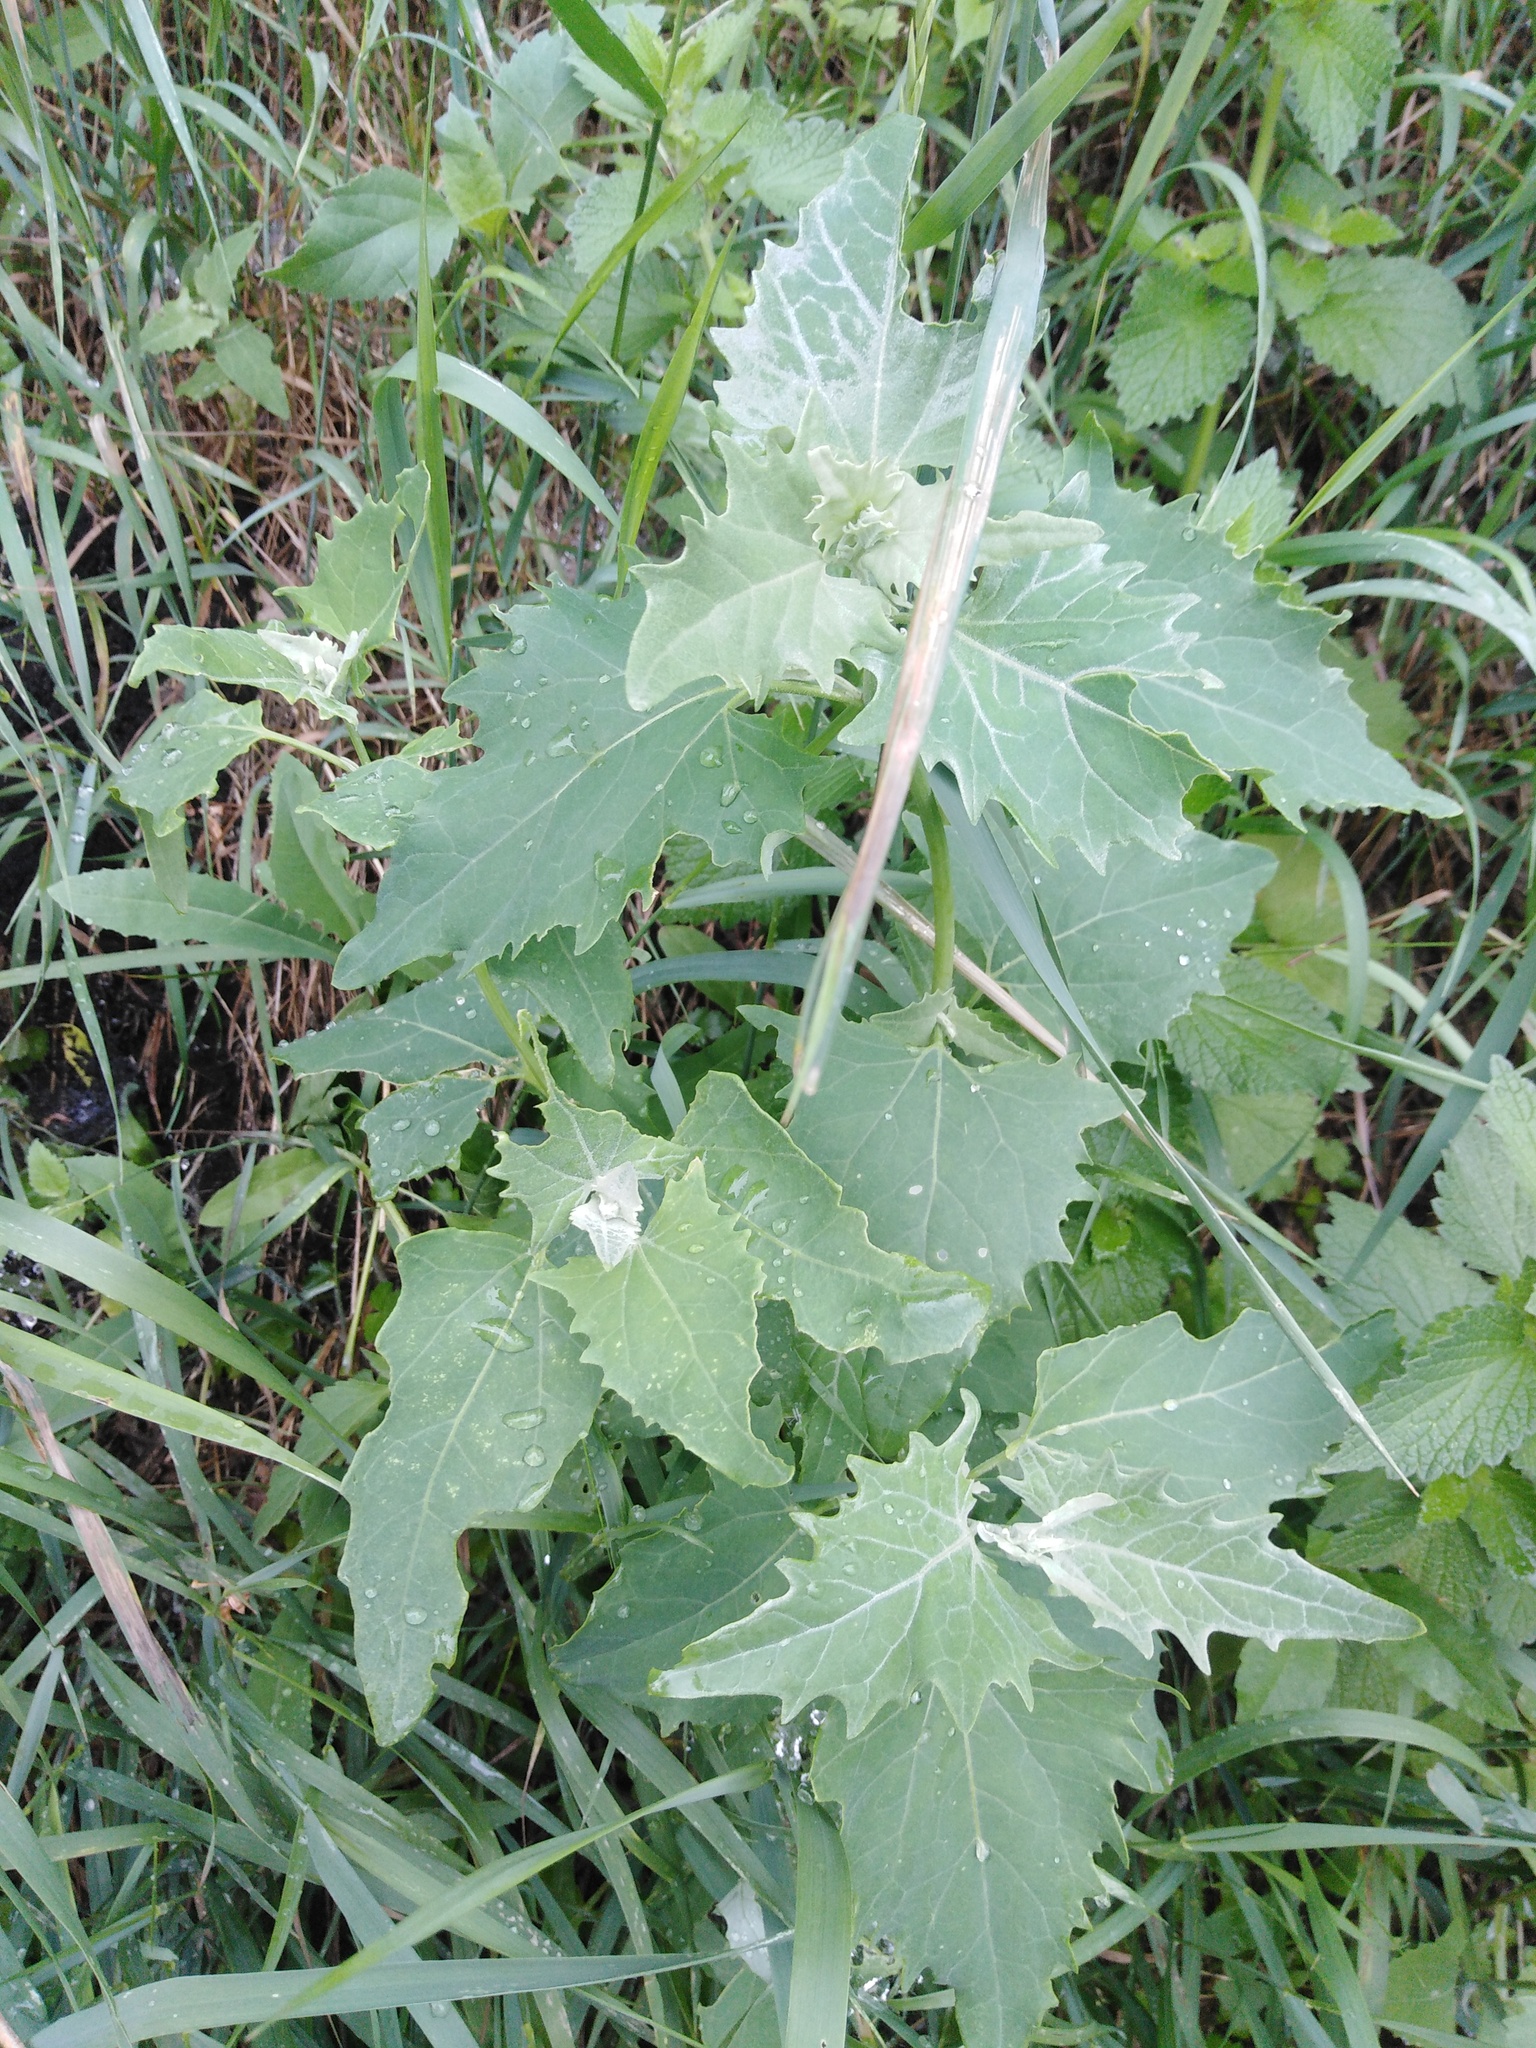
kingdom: Plantae
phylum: Tracheophyta
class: Magnoliopsida
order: Caryophyllales
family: Amaranthaceae
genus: Atriplex
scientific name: Atriplex sagittata
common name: Purple orache
